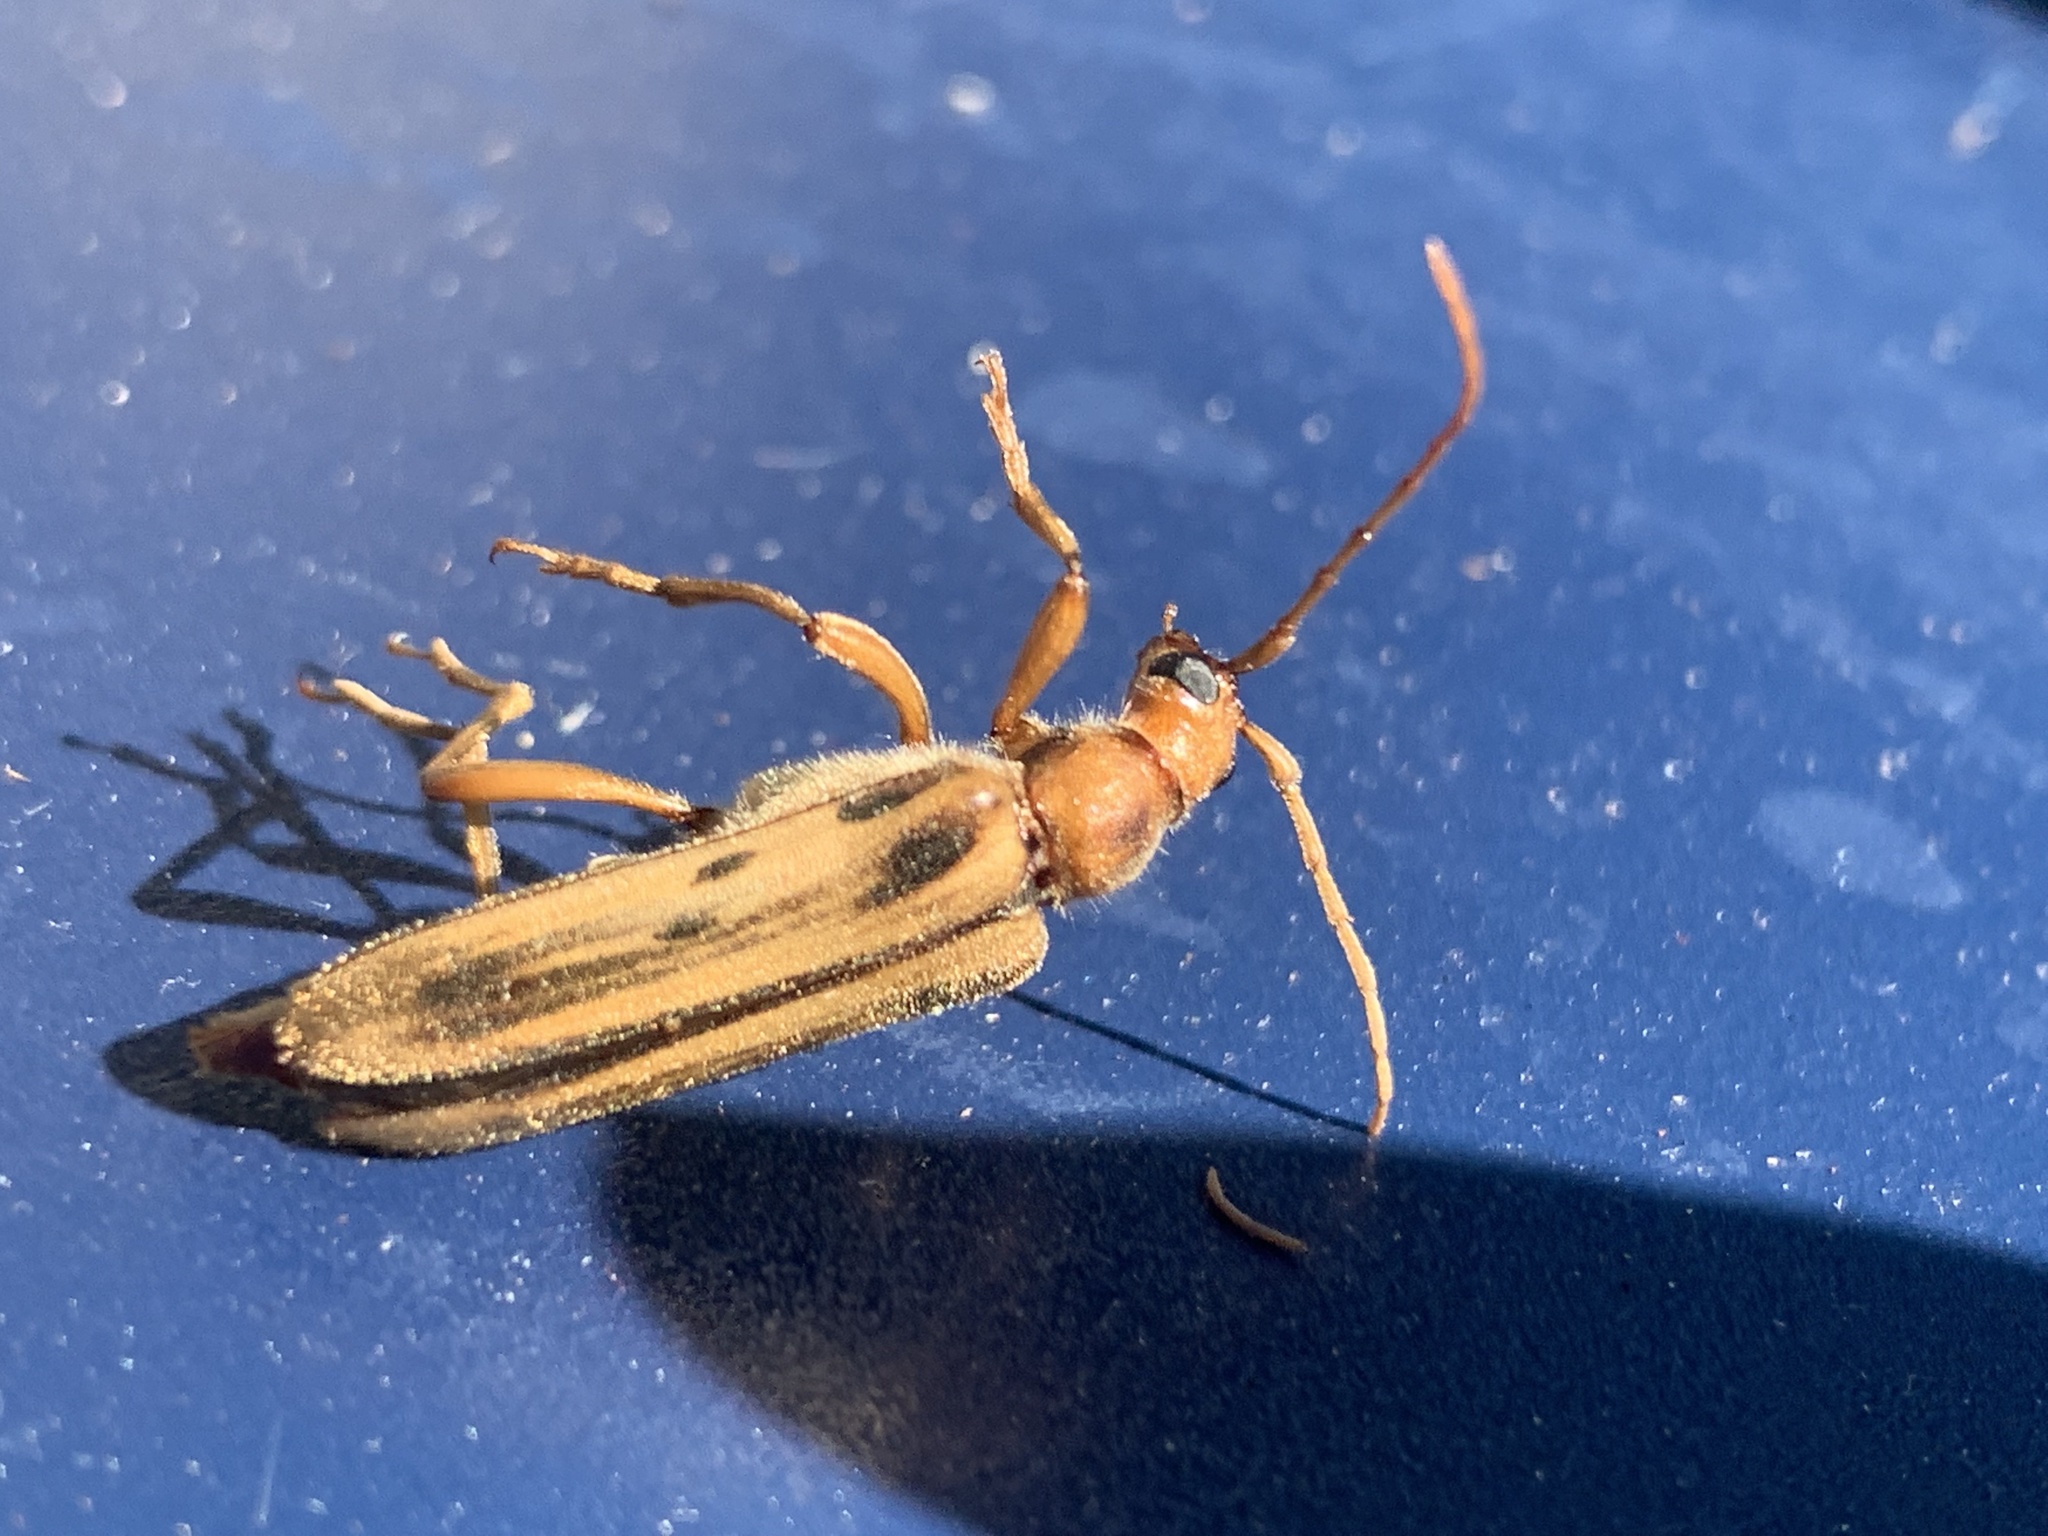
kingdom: Animalia
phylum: Arthropoda
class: Insecta
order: Coleoptera
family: Cerambycidae
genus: Ortholeptura
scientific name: Ortholeptura valida
